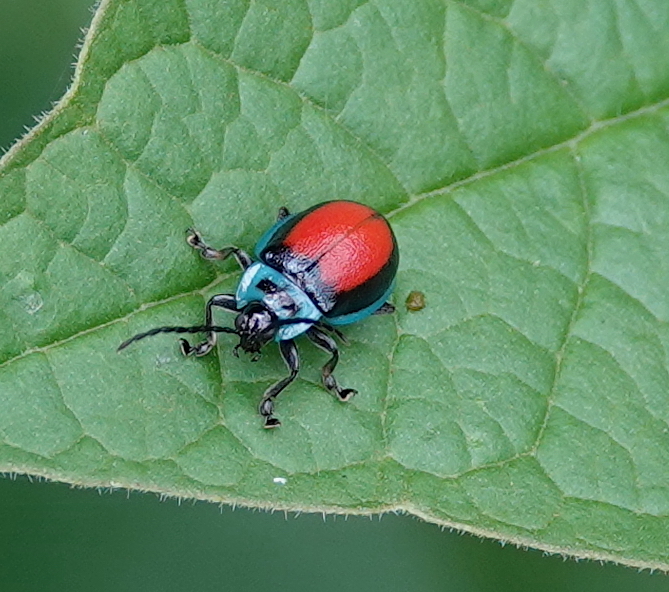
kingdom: Animalia
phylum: Arthropoda
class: Insecta
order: Coleoptera
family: Chrysomelidae
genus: Aspicela
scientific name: Aspicela
